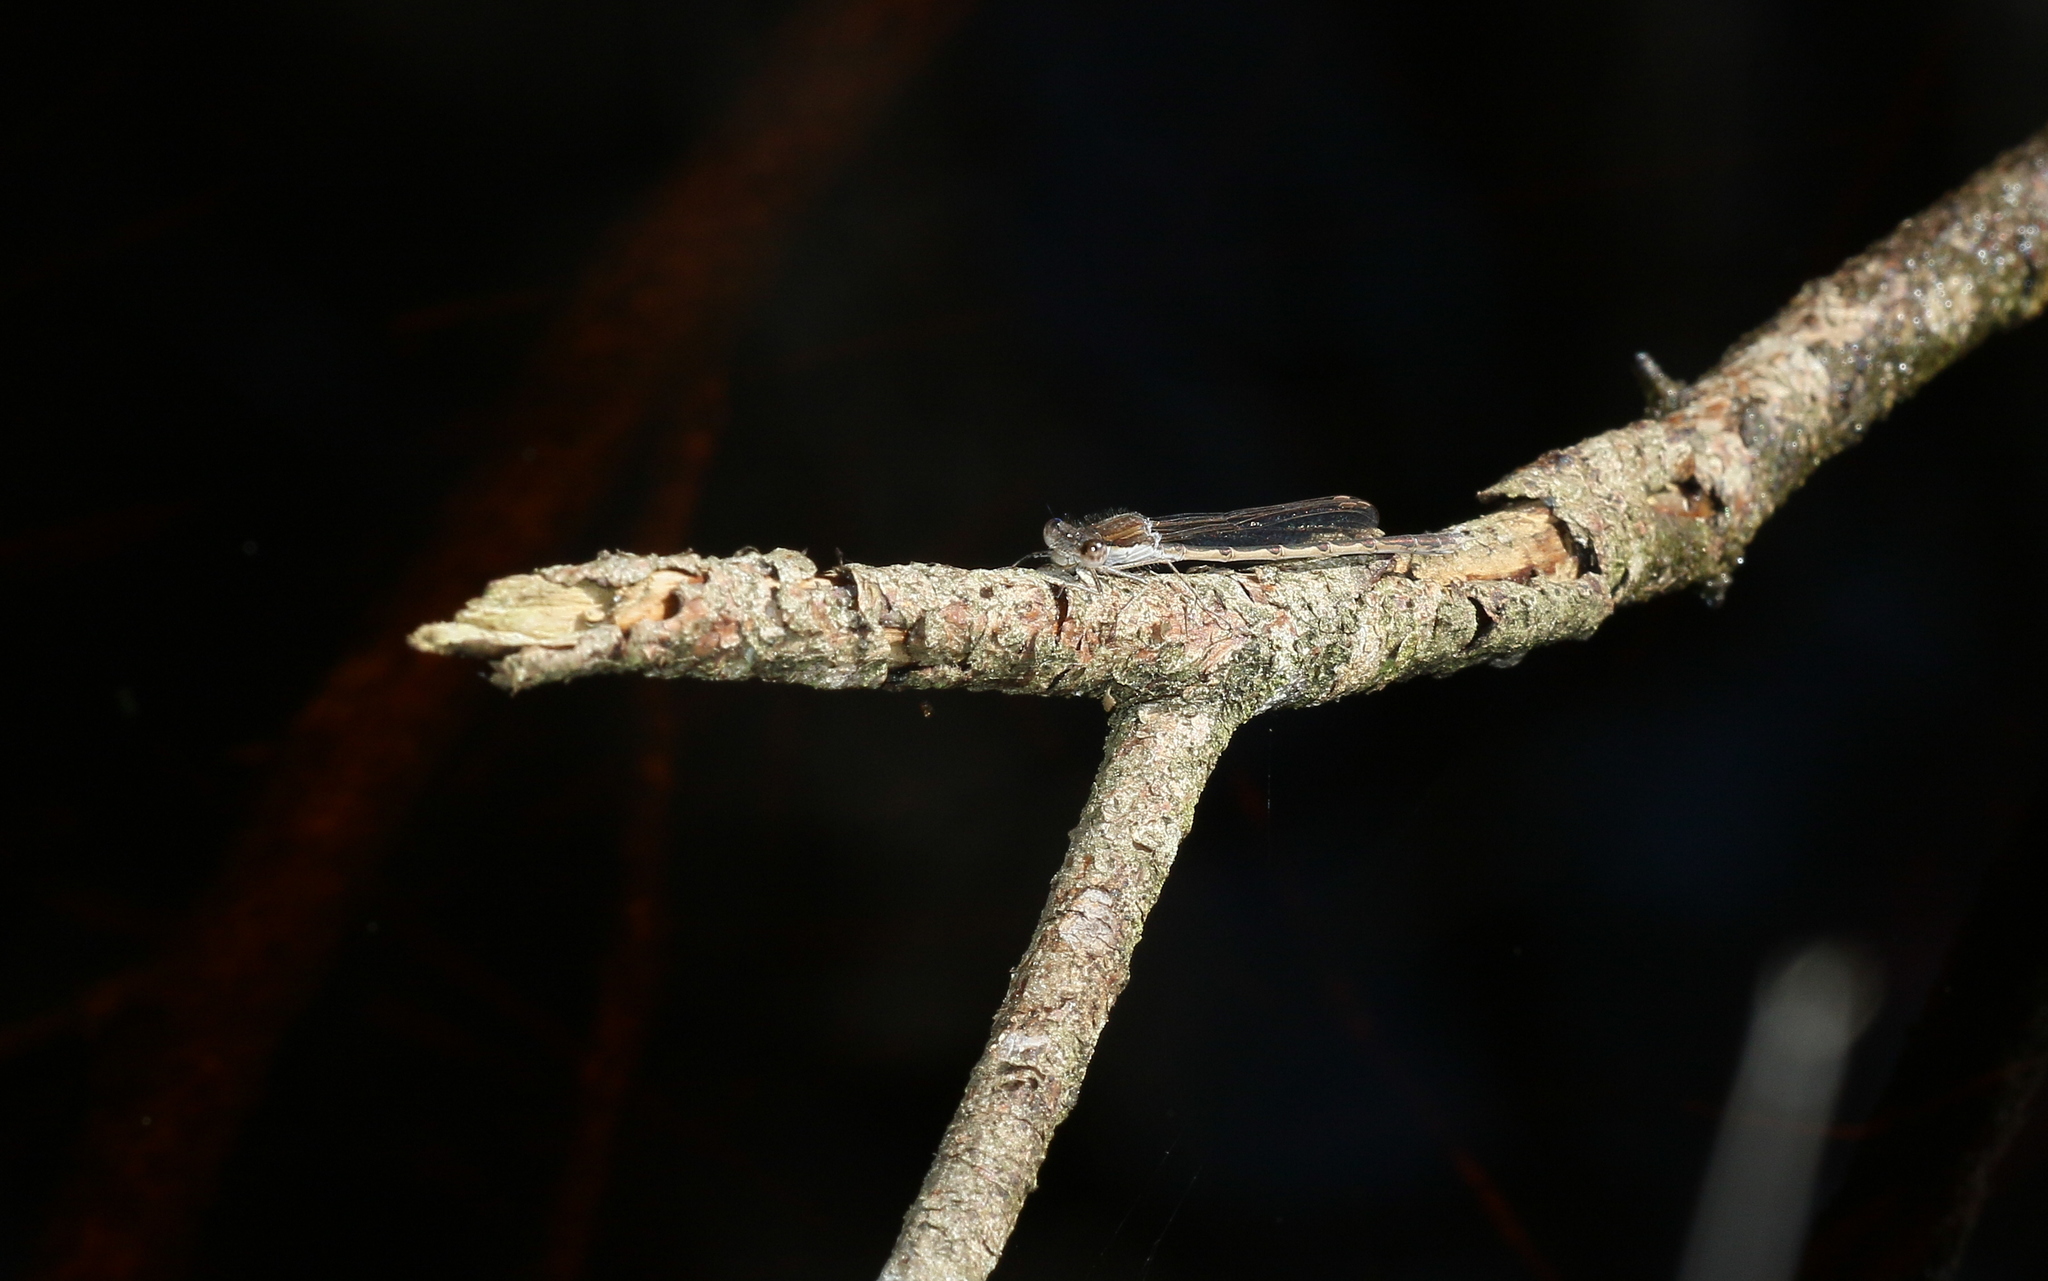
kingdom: Animalia
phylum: Arthropoda
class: Insecta
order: Odonata
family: Lestidae
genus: Sympecma
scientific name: Sympecma fusca
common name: Common winter damsel
